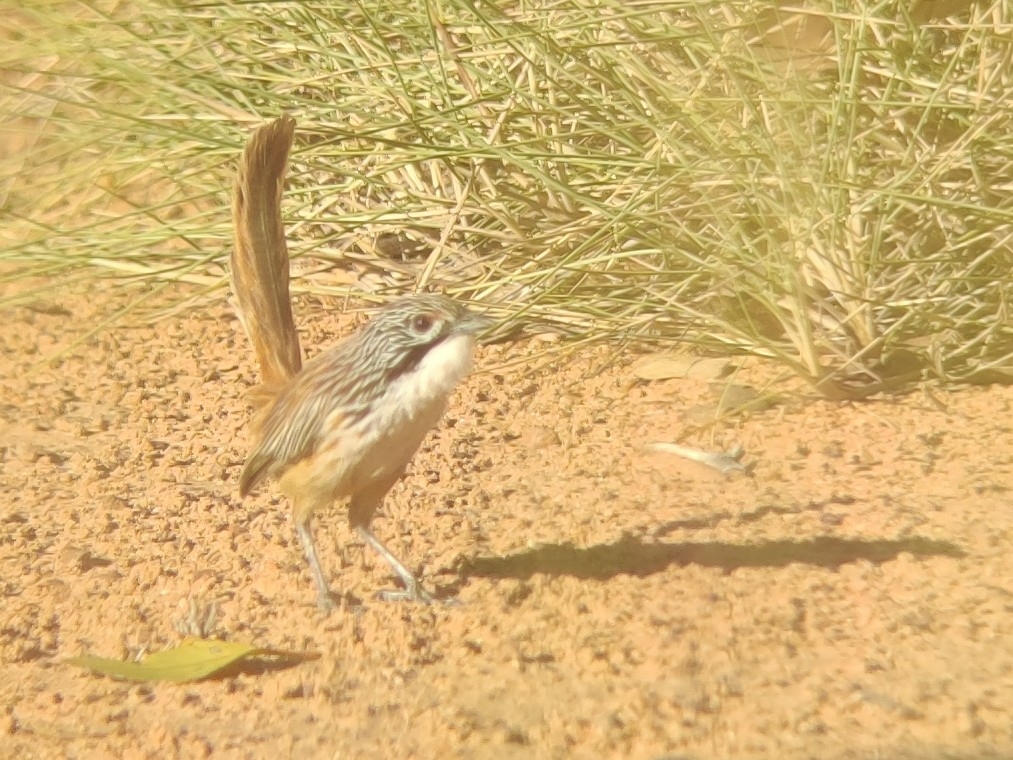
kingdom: Animalia
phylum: Chordata
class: Aves
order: Passeriformes
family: Maluridae
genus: Amytornis
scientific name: Amytornis dorotheae
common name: Carpentarian grasswren
